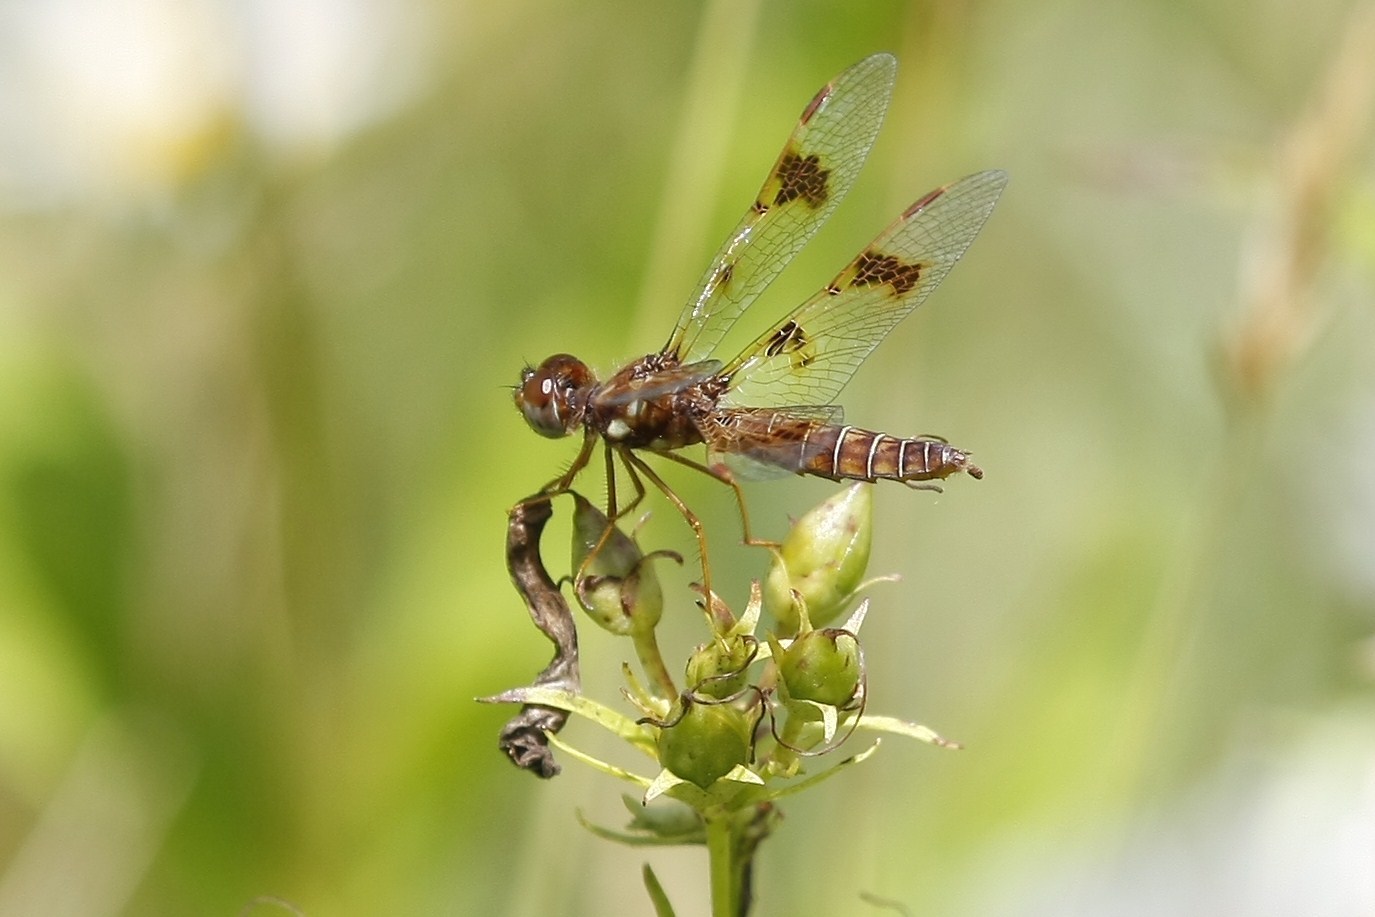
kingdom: Animalia
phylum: Arthropoda
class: Insecta
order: Odonata
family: Libellulidae
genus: Perithemis
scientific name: Perithemis tenera
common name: Eastern amberwing
